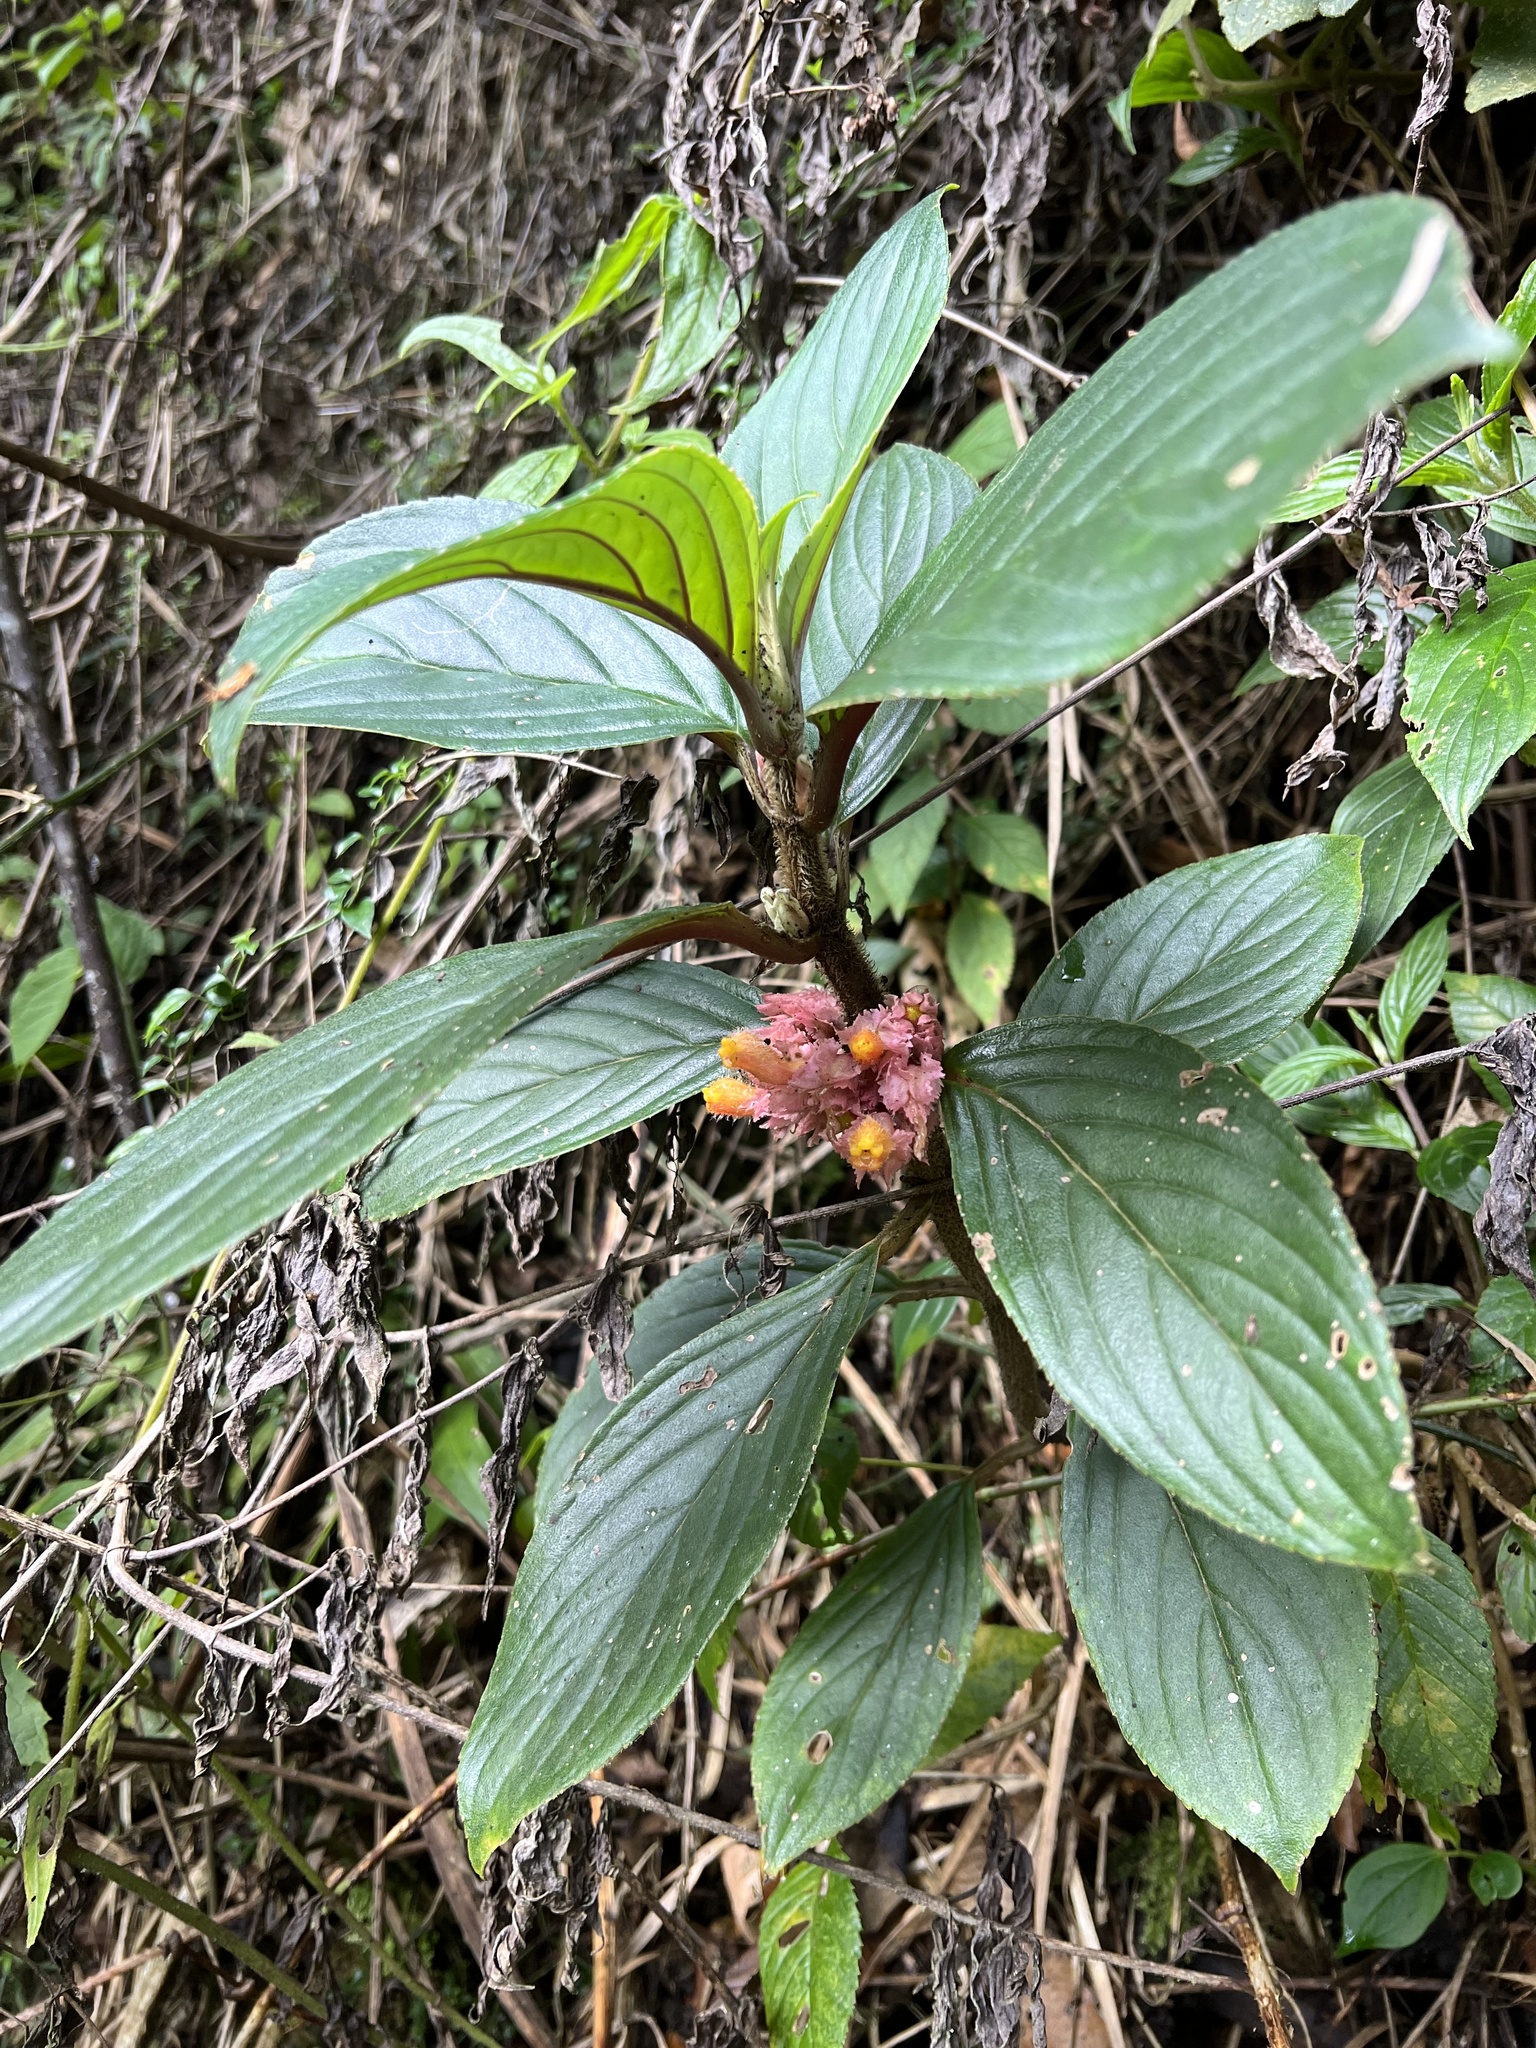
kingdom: Plantae
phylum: Tracheophyta
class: Magnoliopsida
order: Lamiales
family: Gesneriaceae
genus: Glossoloma
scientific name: Glossoloma ichthyoderma
